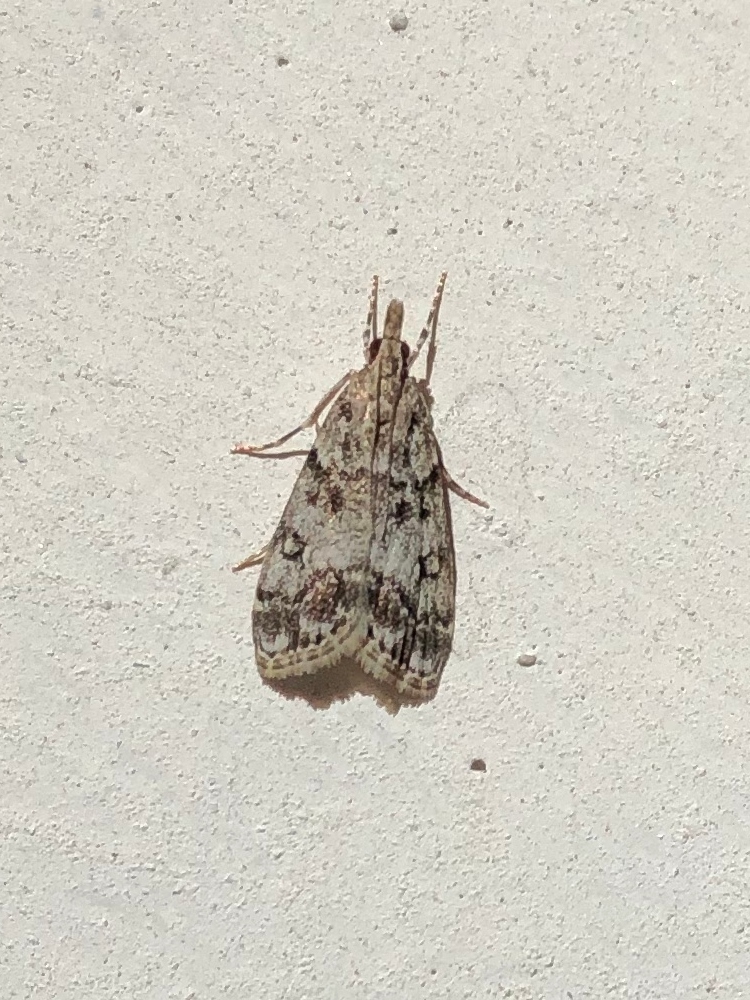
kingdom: Animalia
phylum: Arthropoda
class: Insecta
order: Lepidoptera
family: Crambidae
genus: Eudonia
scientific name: Eudonia lacustrata
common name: Little grey
